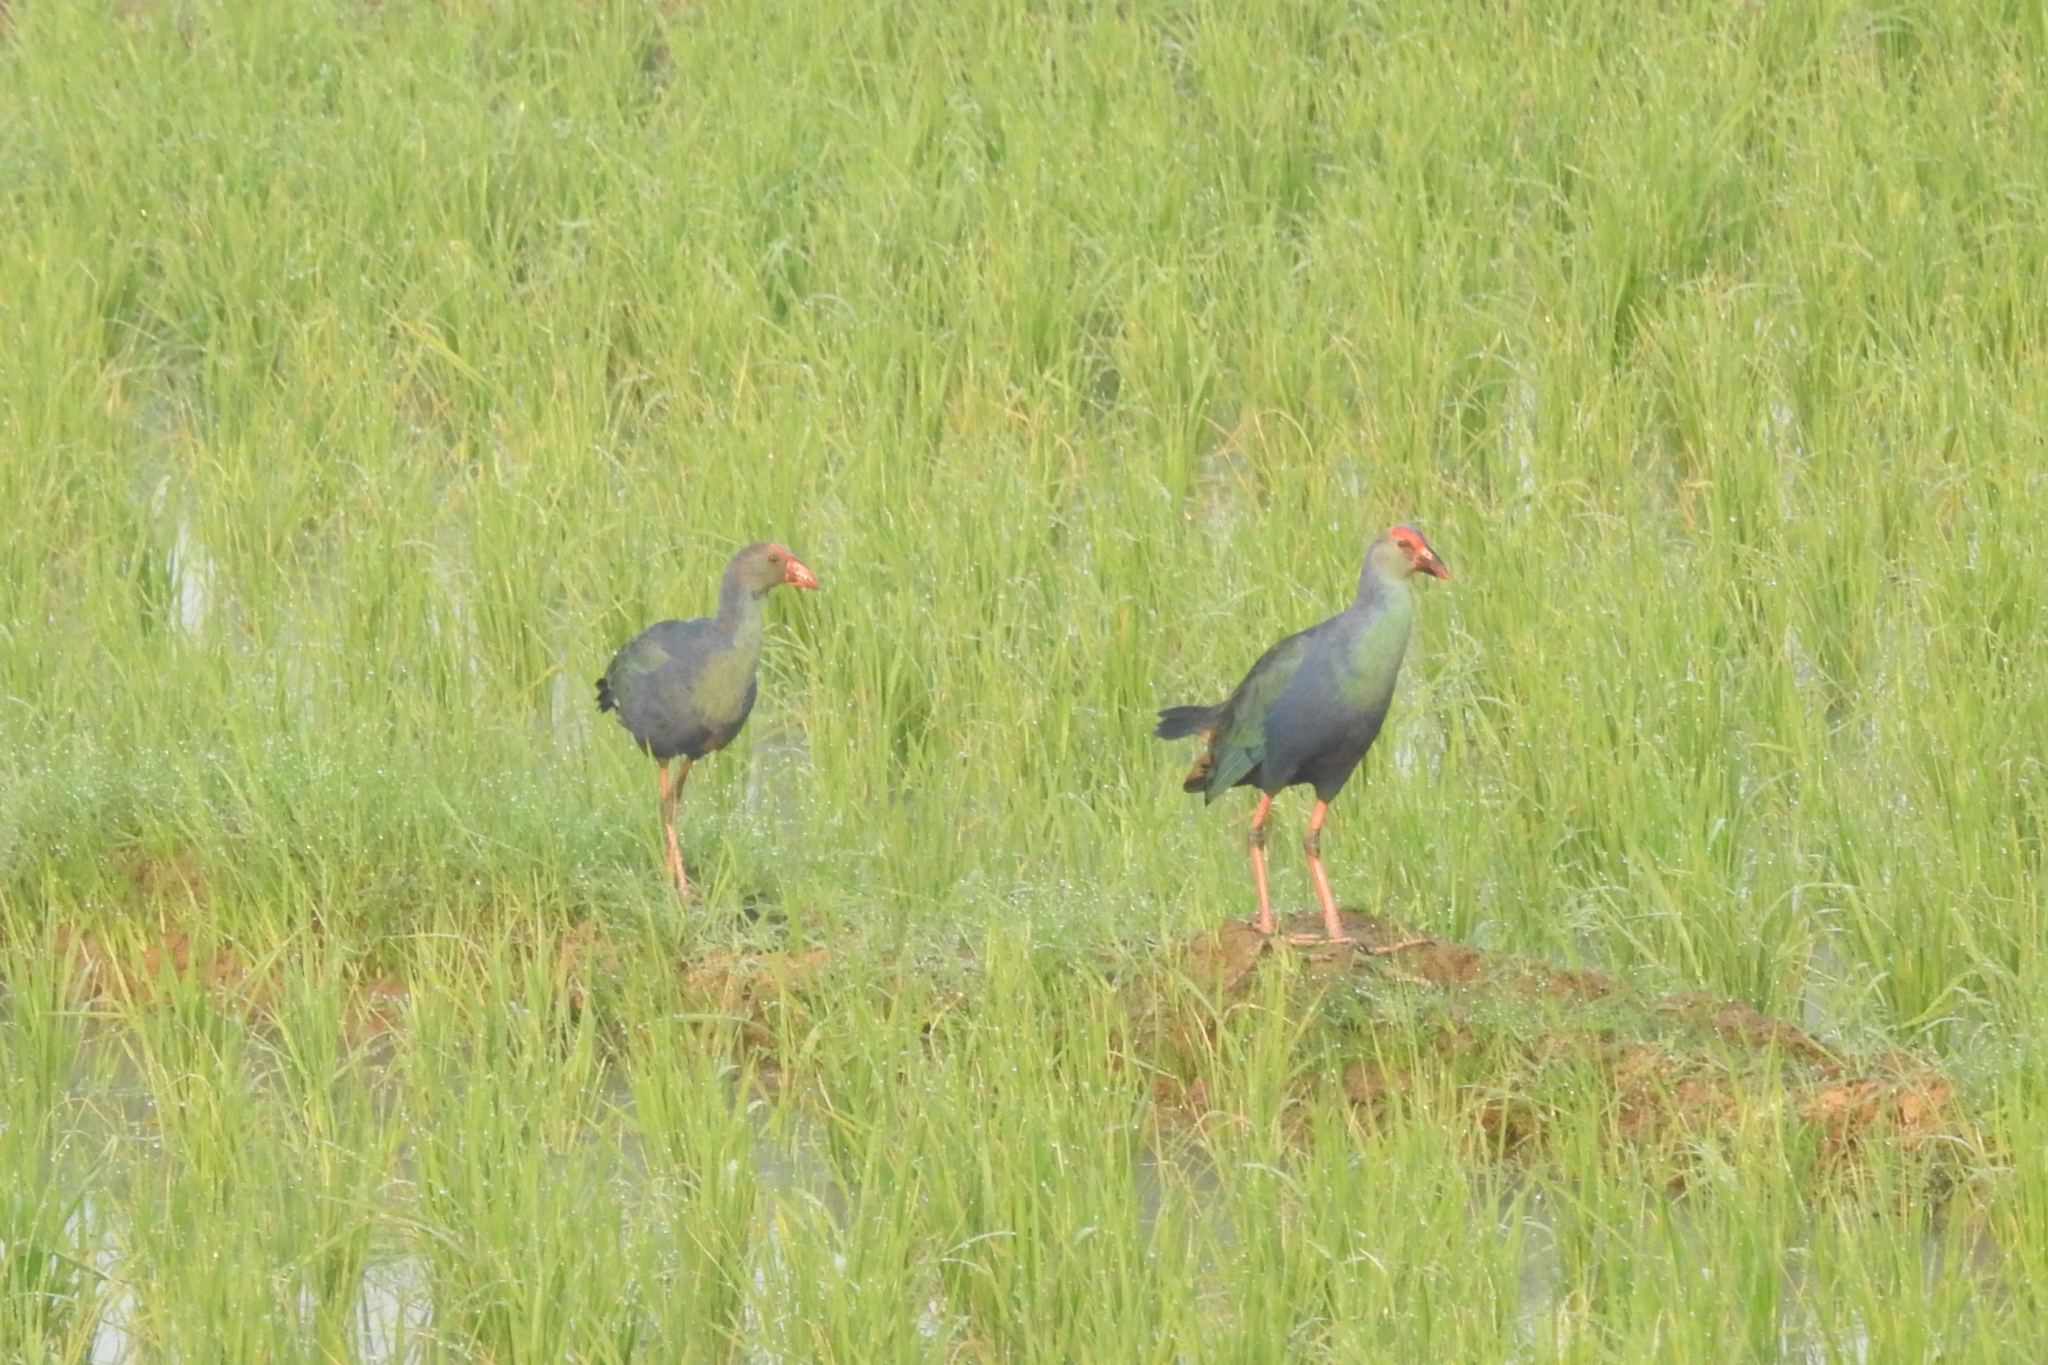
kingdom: Animalia
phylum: Chordata
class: Aves
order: Gruiformes
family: Rallidae
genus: Porphyrio
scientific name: Porphyrio porphyrio
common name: Purple swamphen
